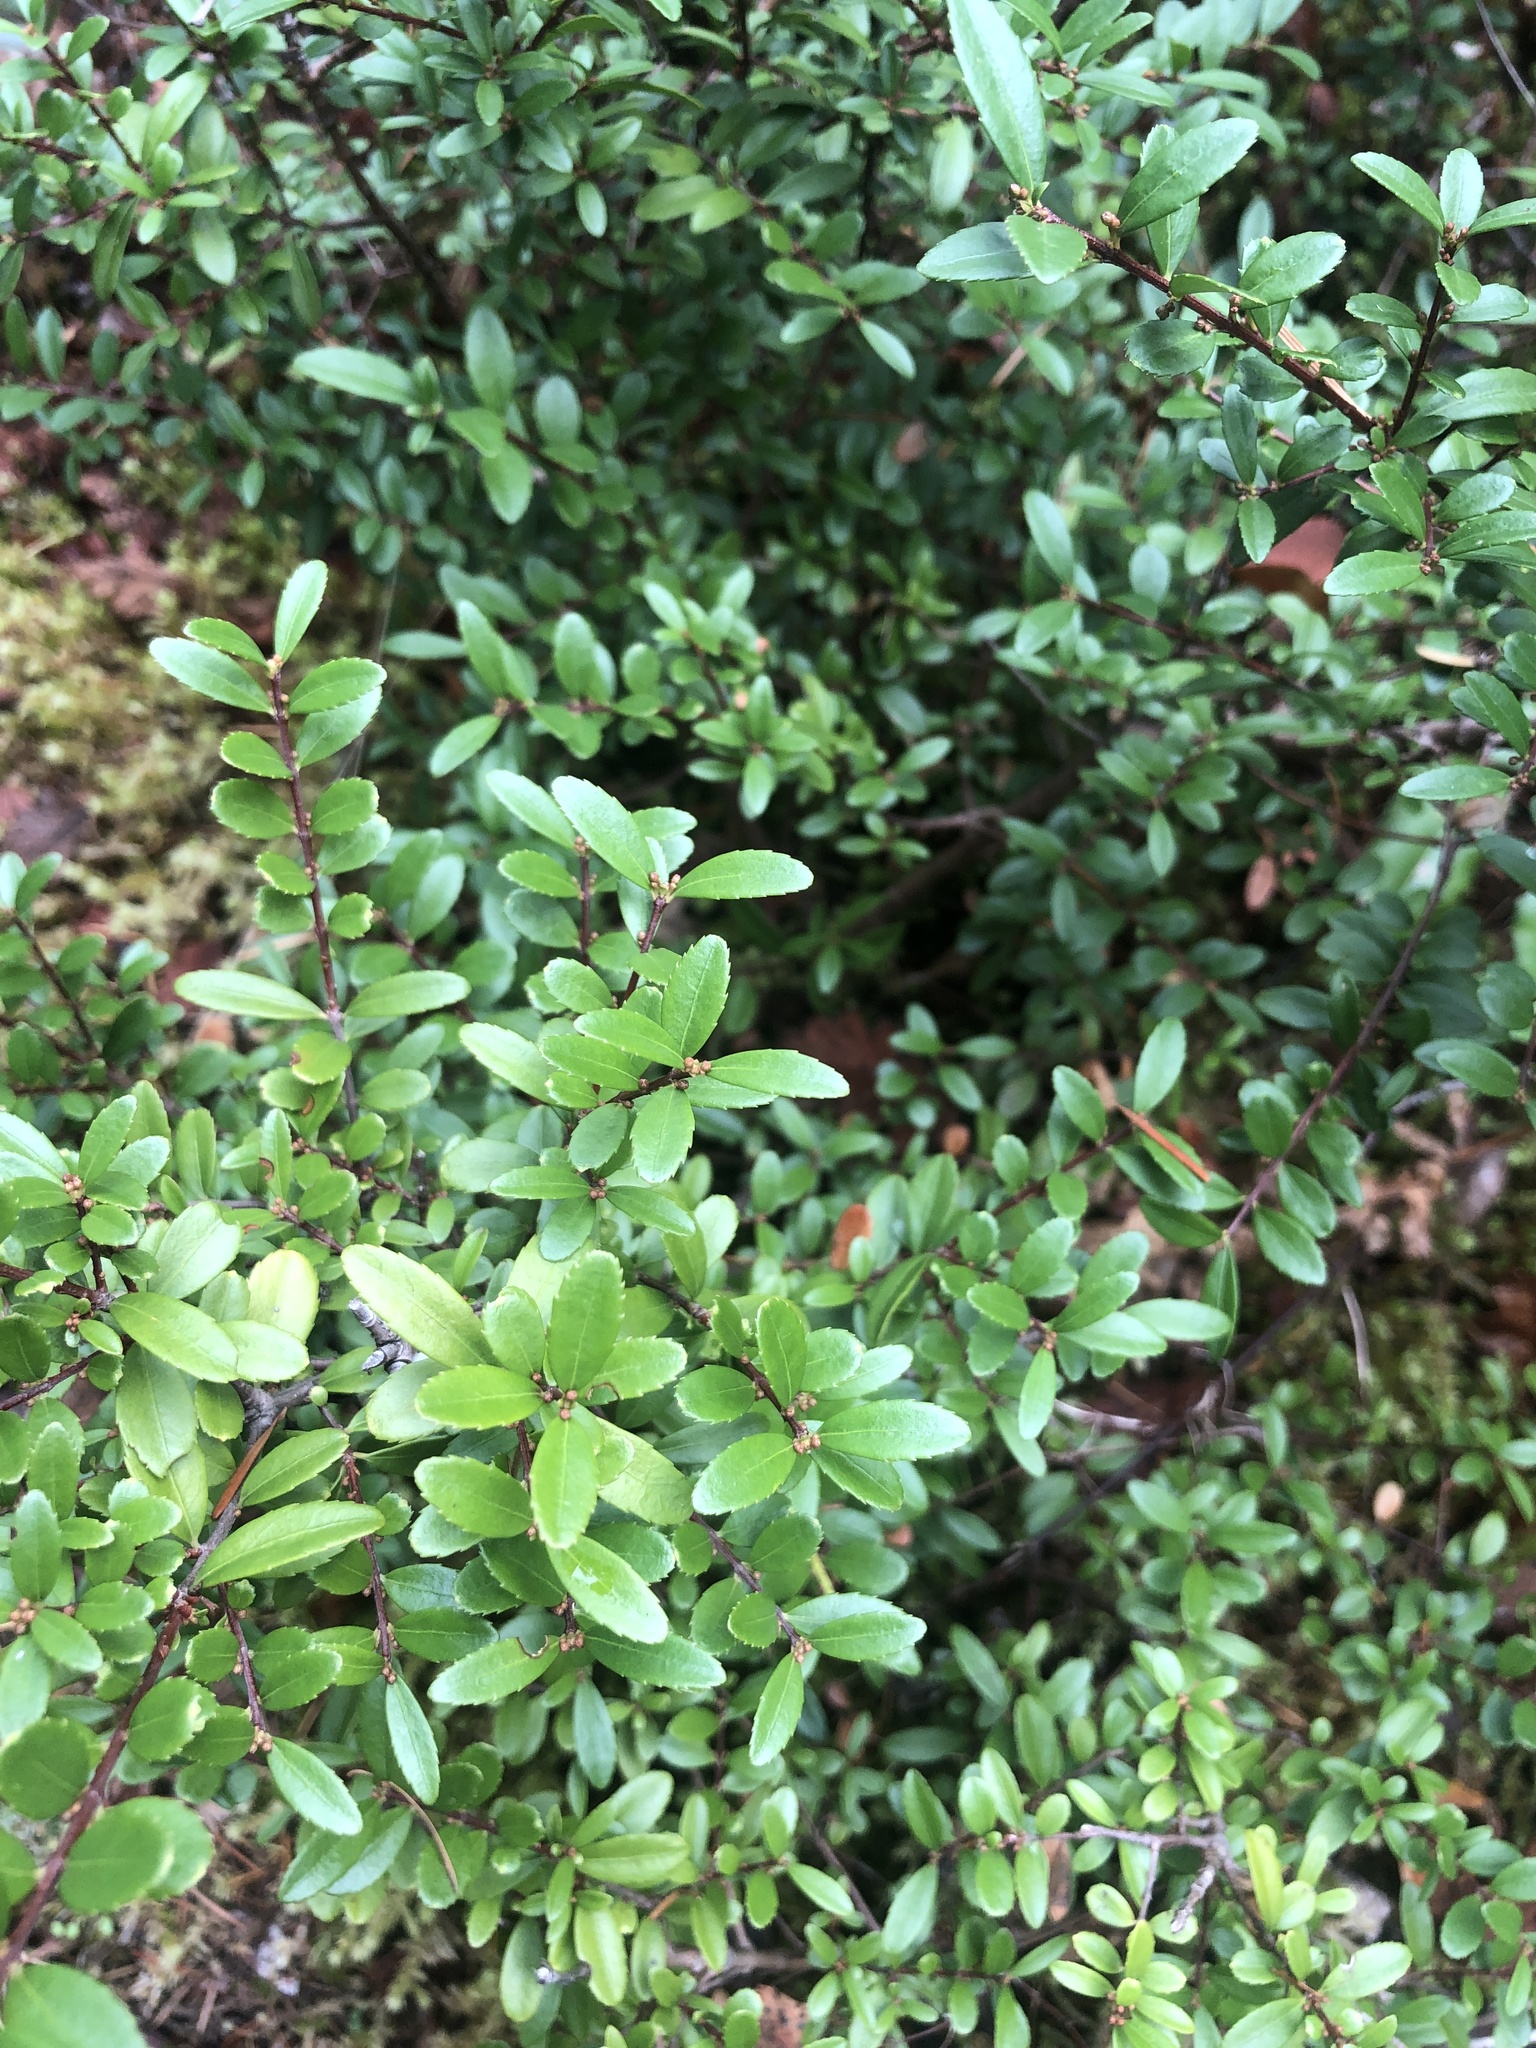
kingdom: Plantae
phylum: Tracheophyta
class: Magnoliopsida
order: Celastrales
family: Celastraceae
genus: Paxistima
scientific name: Paxistima myrsinites
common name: Mountain-lover
